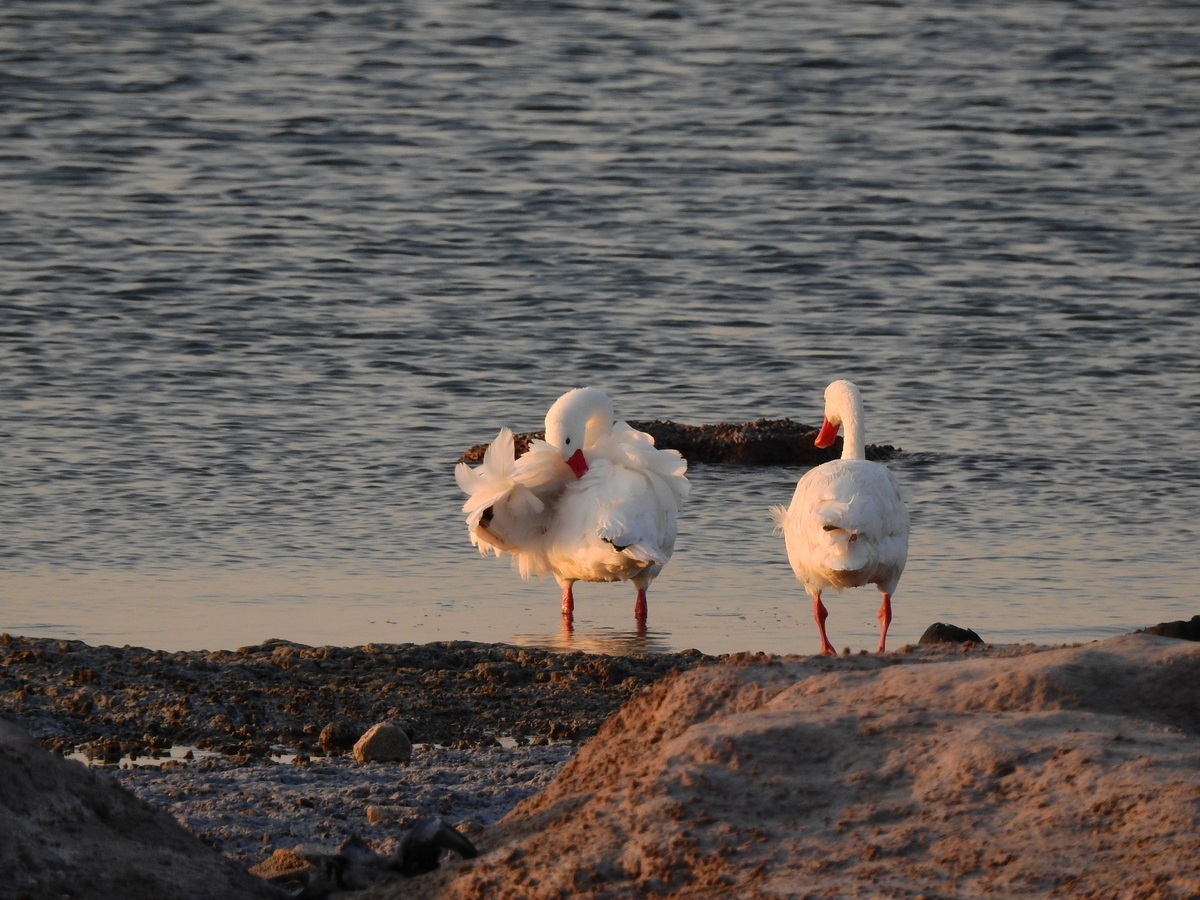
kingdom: Animalia
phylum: Chordata
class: Aves
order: Anseriformes
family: Anatidae
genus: Coscoroba
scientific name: Coscoroba coscoroba
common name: Coscoroba swan
